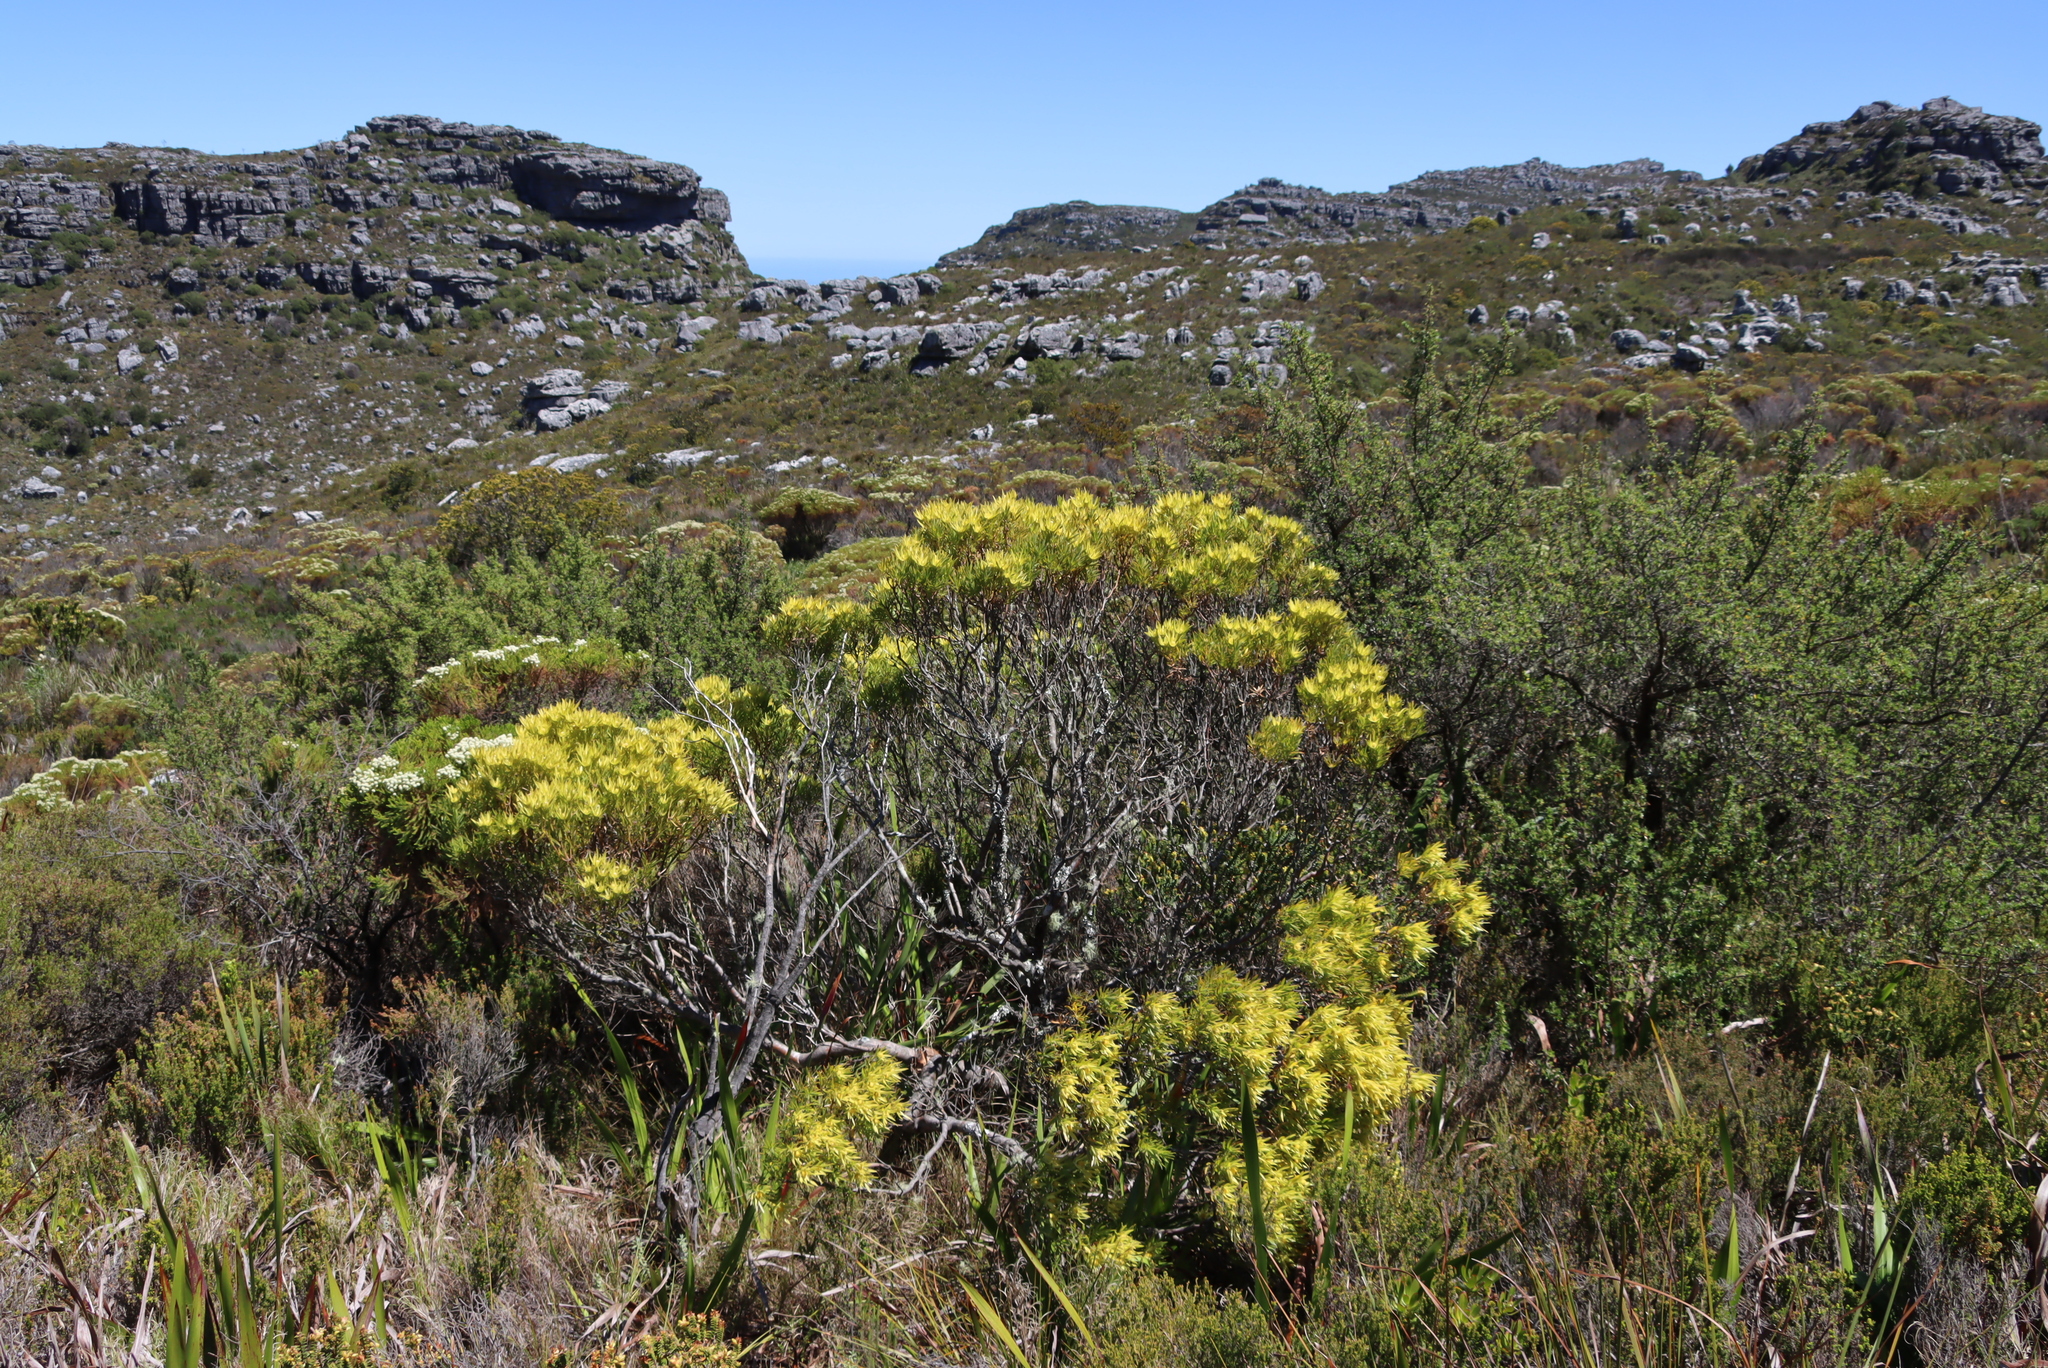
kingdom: Plantae
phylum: Tracheophyta
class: Magnoliopsida
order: Proteales
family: Proteaceae
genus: Leucadendron
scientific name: Leucadendron xanthoconus
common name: Sickle-leaf conebush
